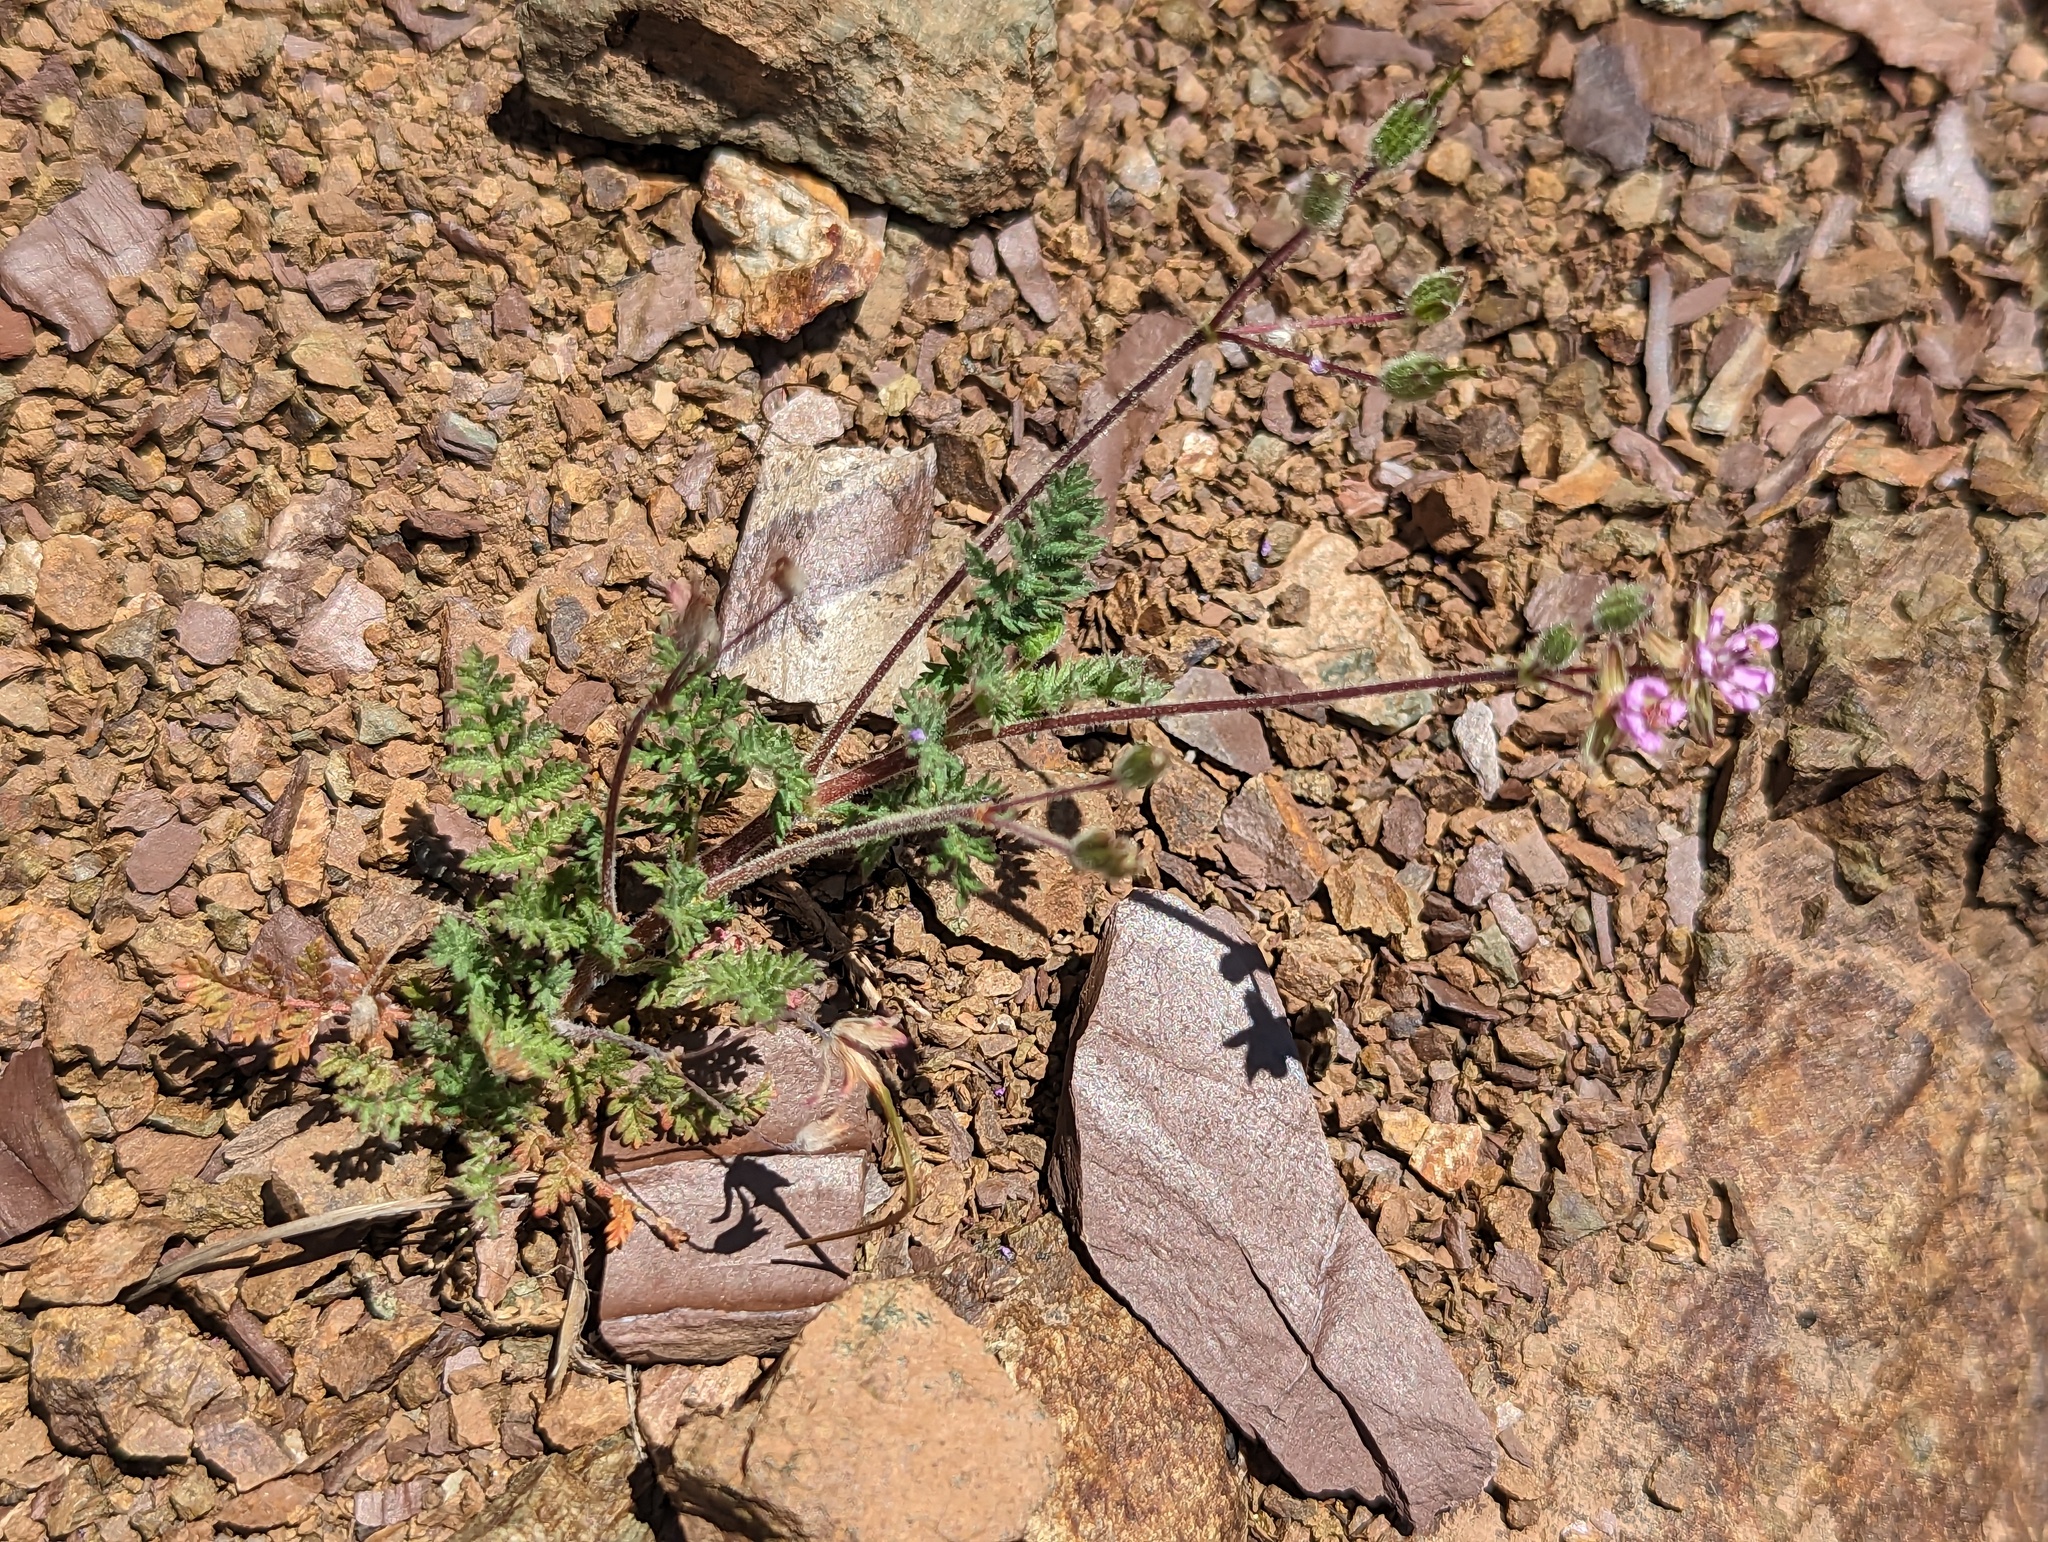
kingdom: Plantae
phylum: Tracheophyta
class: Magnoliopsida
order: Geraniales
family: Geraniaceae
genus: Erodium
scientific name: Erodium cicutarium
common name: Common stork's-bill
